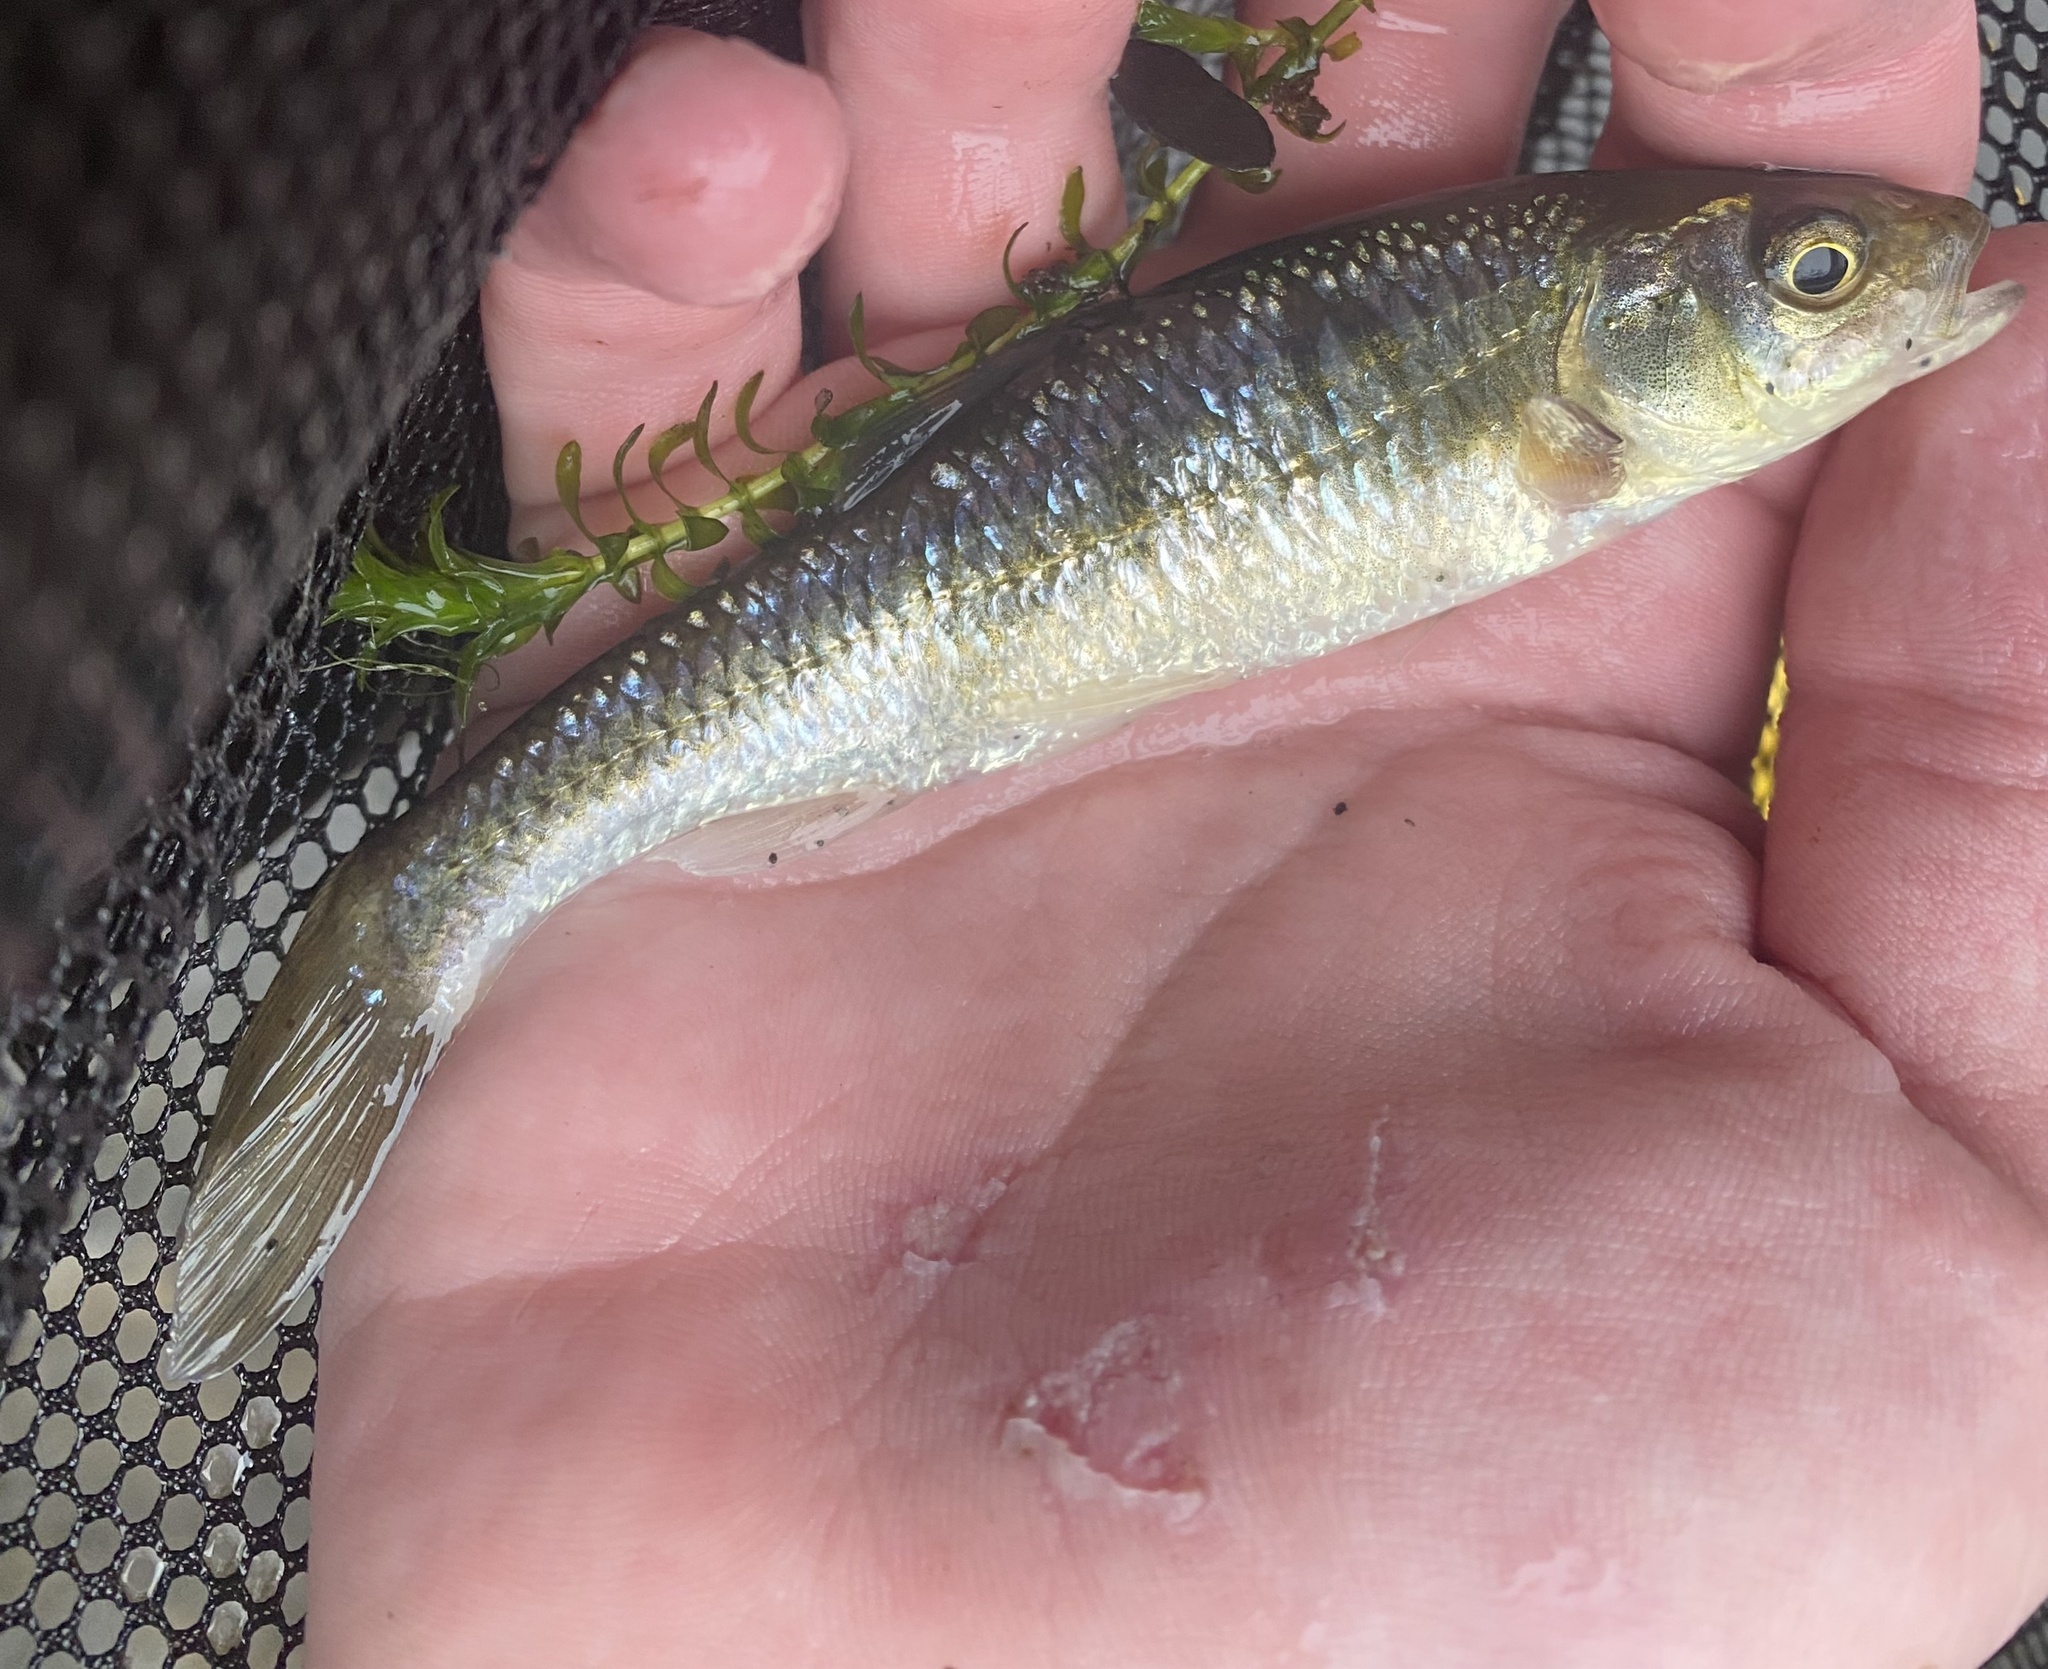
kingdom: Animalia
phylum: Chordata
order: Cypriniformes
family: Cyprinidae
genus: Luxilus
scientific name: Luxilus cornutus
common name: Common shiner
